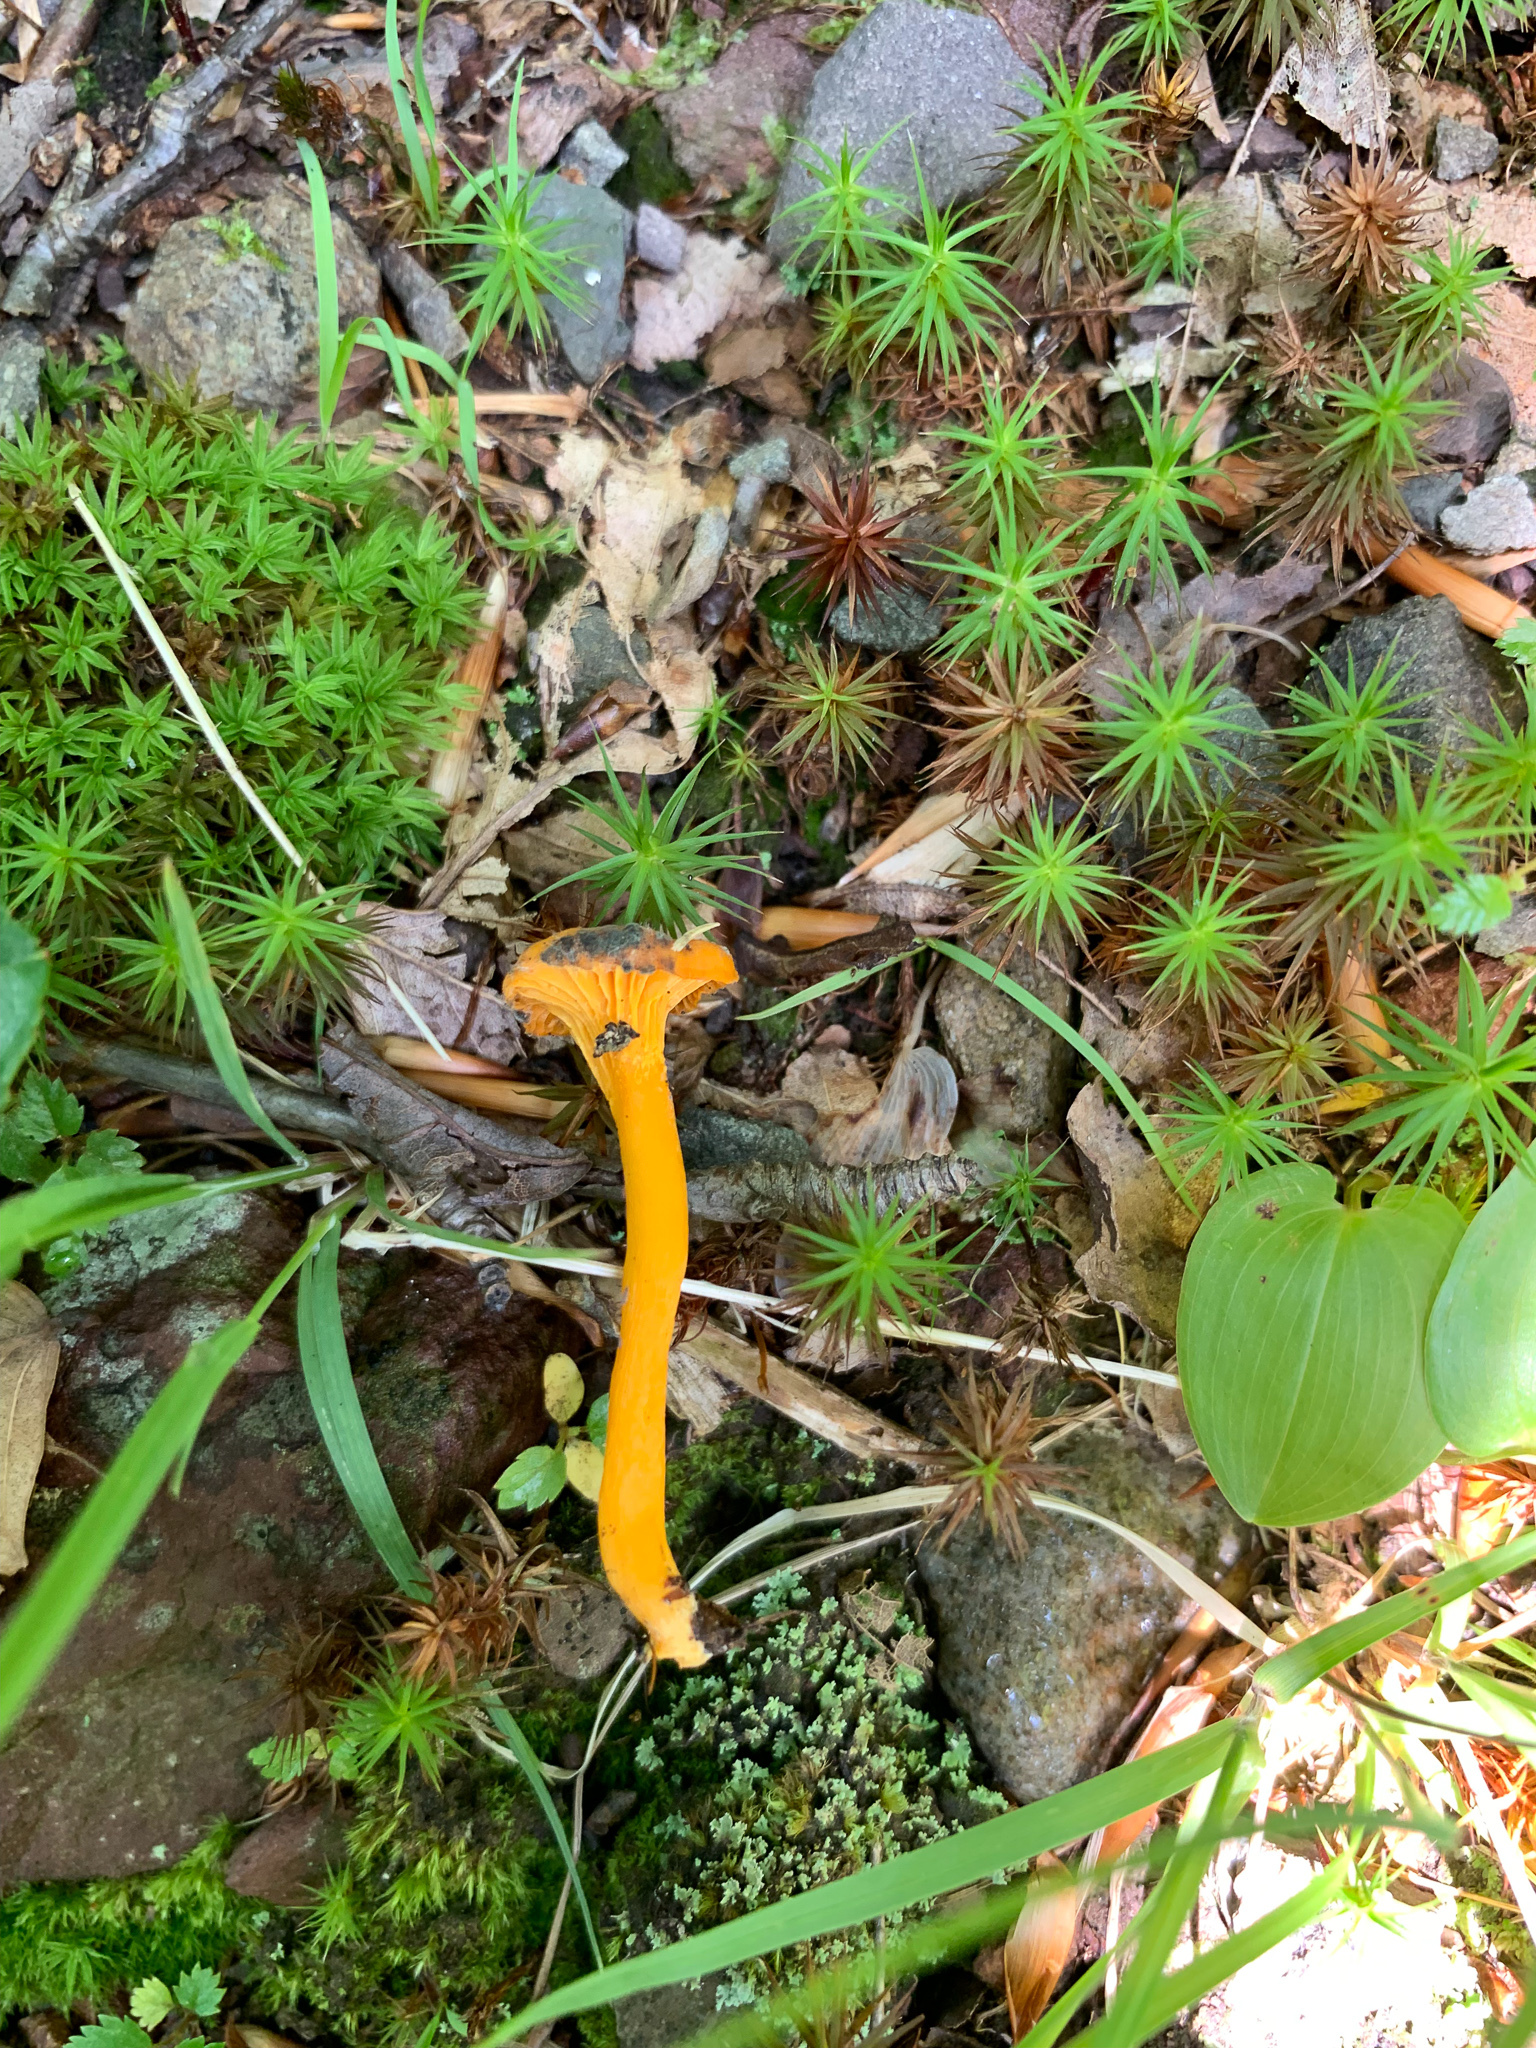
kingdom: Fungi
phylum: Basidiomycota
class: Agaricomycetes
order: Agaricales
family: Hygrophoraceae
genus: Gloioxanthomyces
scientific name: Gloioxanthomyces nitidus
